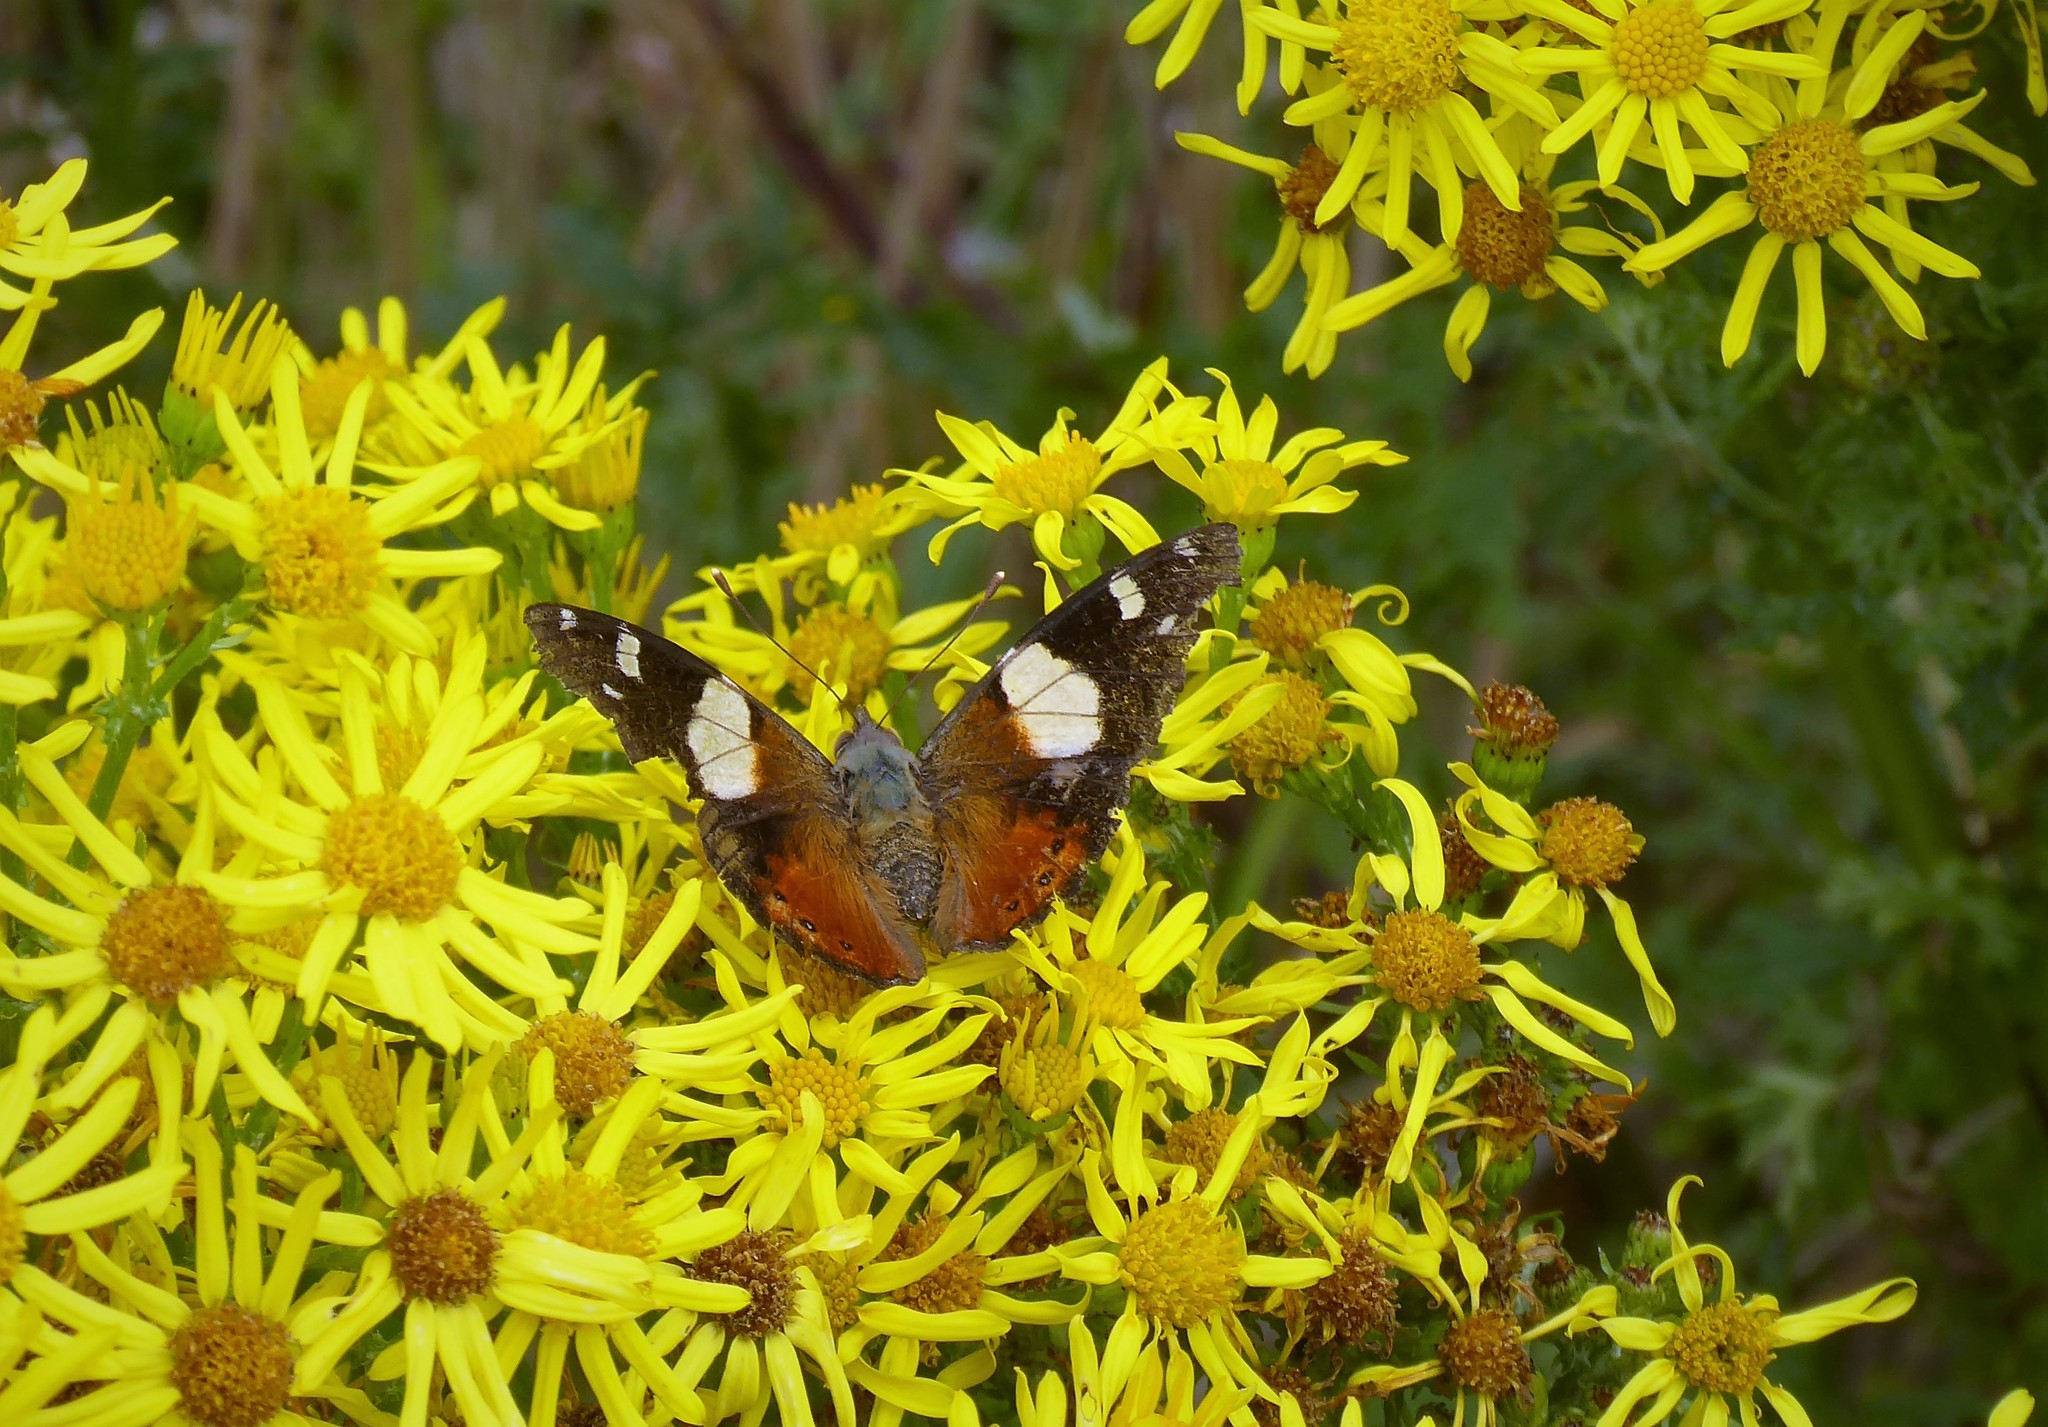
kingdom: Animalia
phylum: Arthropoda
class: Insecta
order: Lepidoptera
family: Nymphalidae
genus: Vanessa
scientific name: Vanessa itea
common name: Yellow admiral
